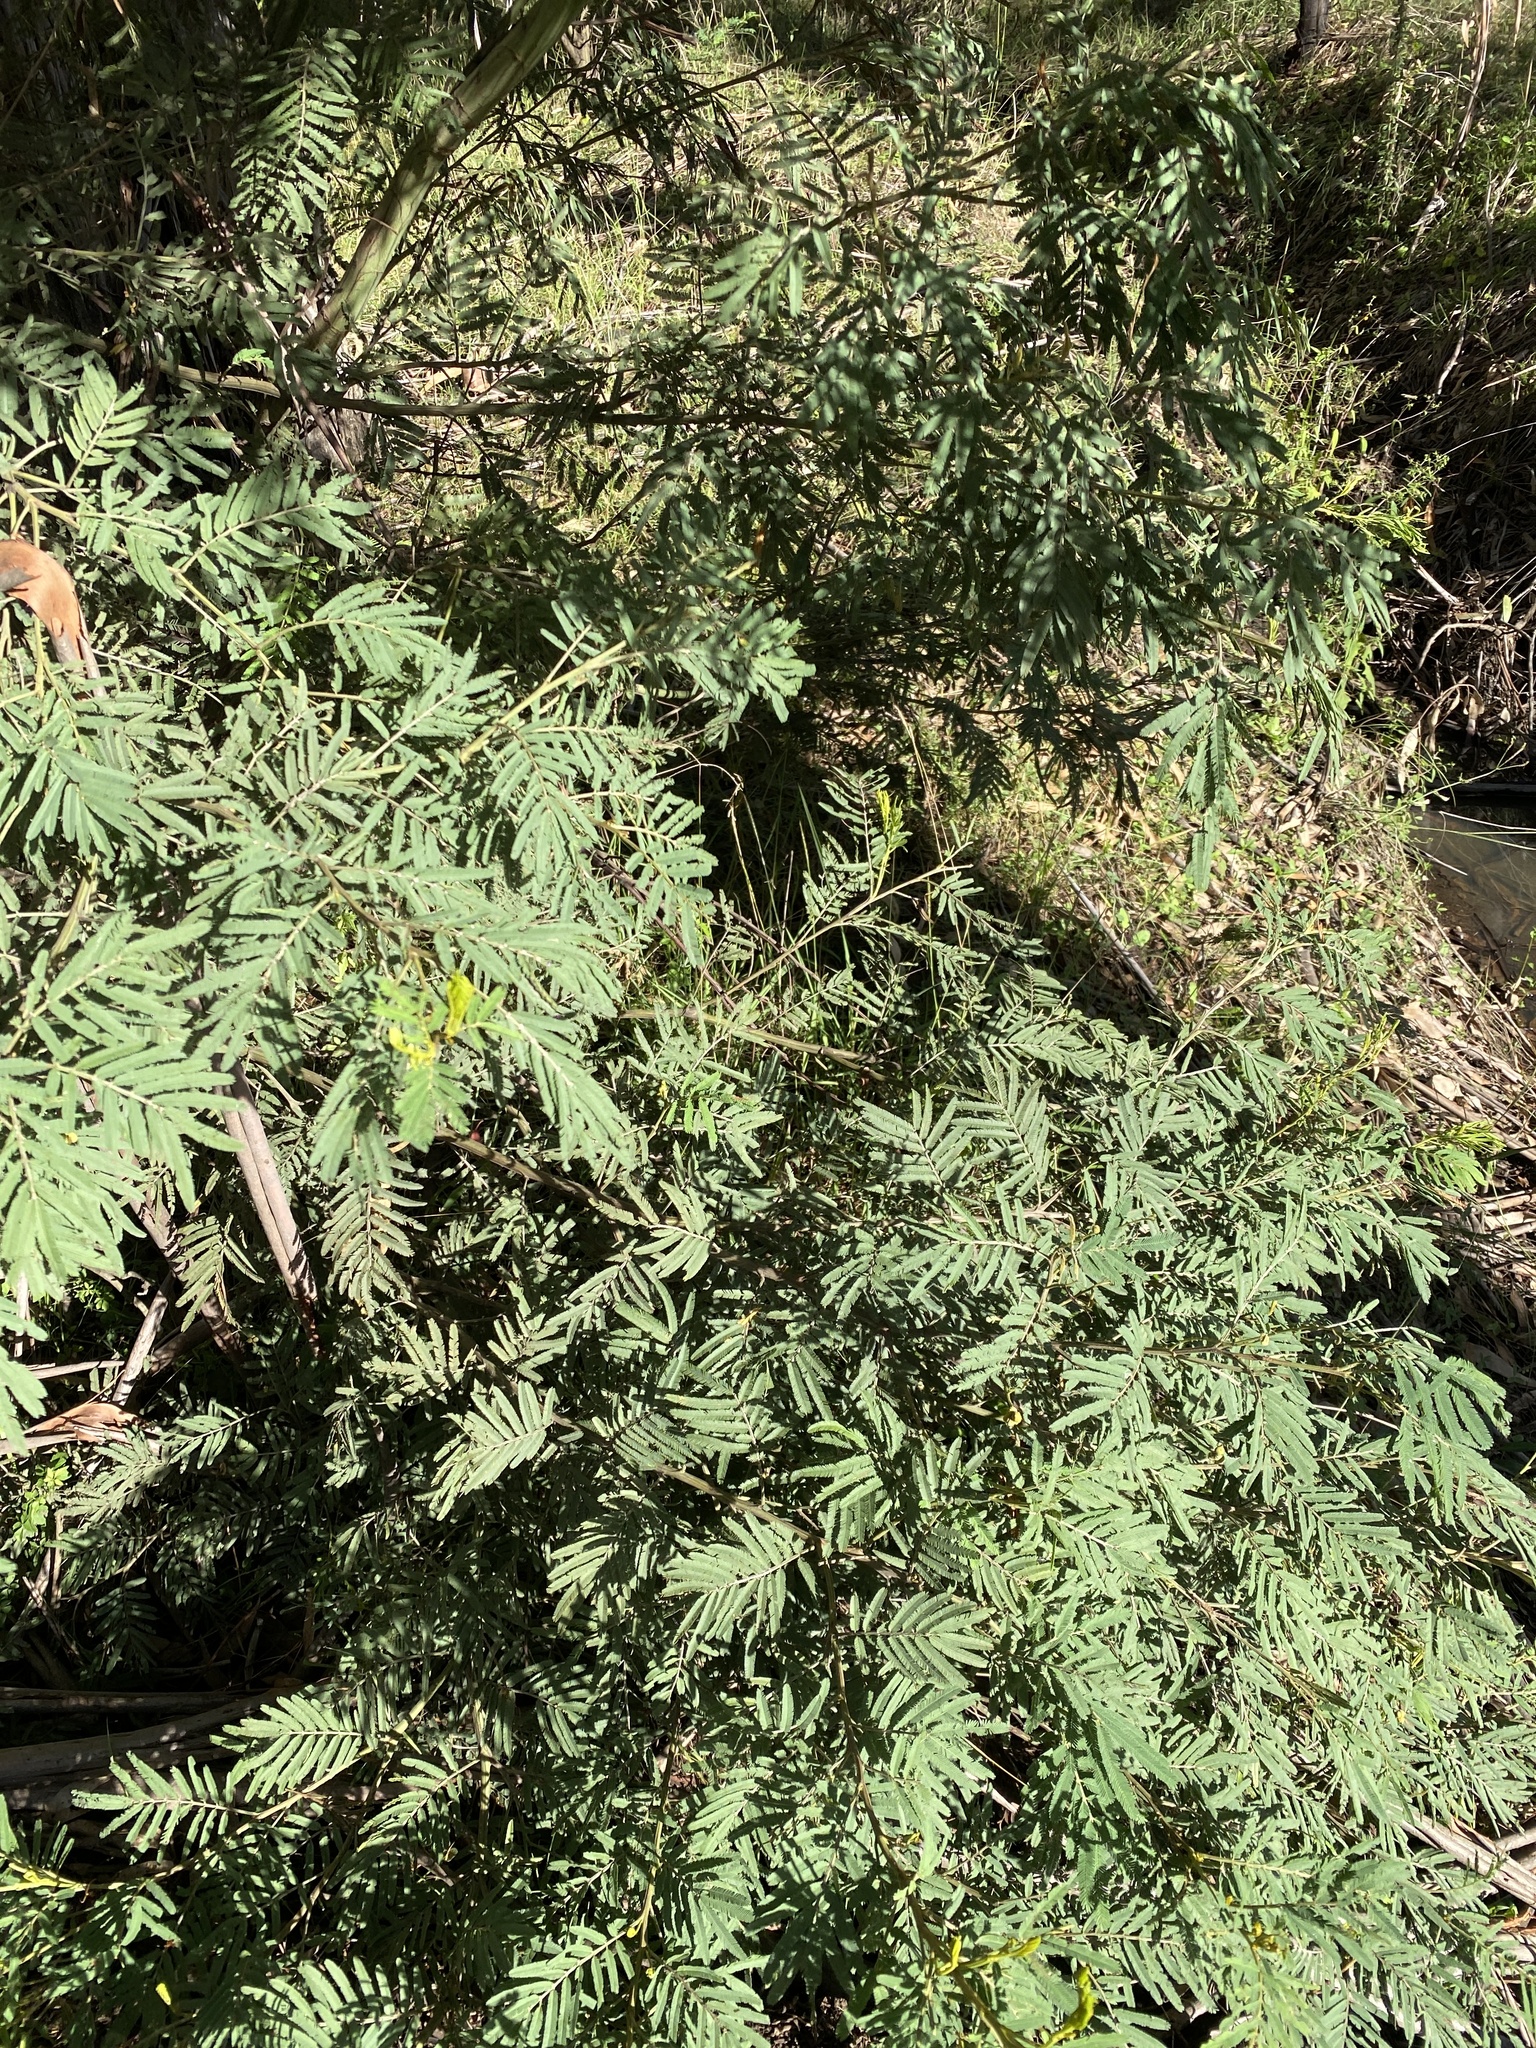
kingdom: Plantae
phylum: Tracheophyta
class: Magnoliopsida
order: Fabales
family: Fabaceae
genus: Acacia
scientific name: Acacia irrorata
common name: Green wattle
